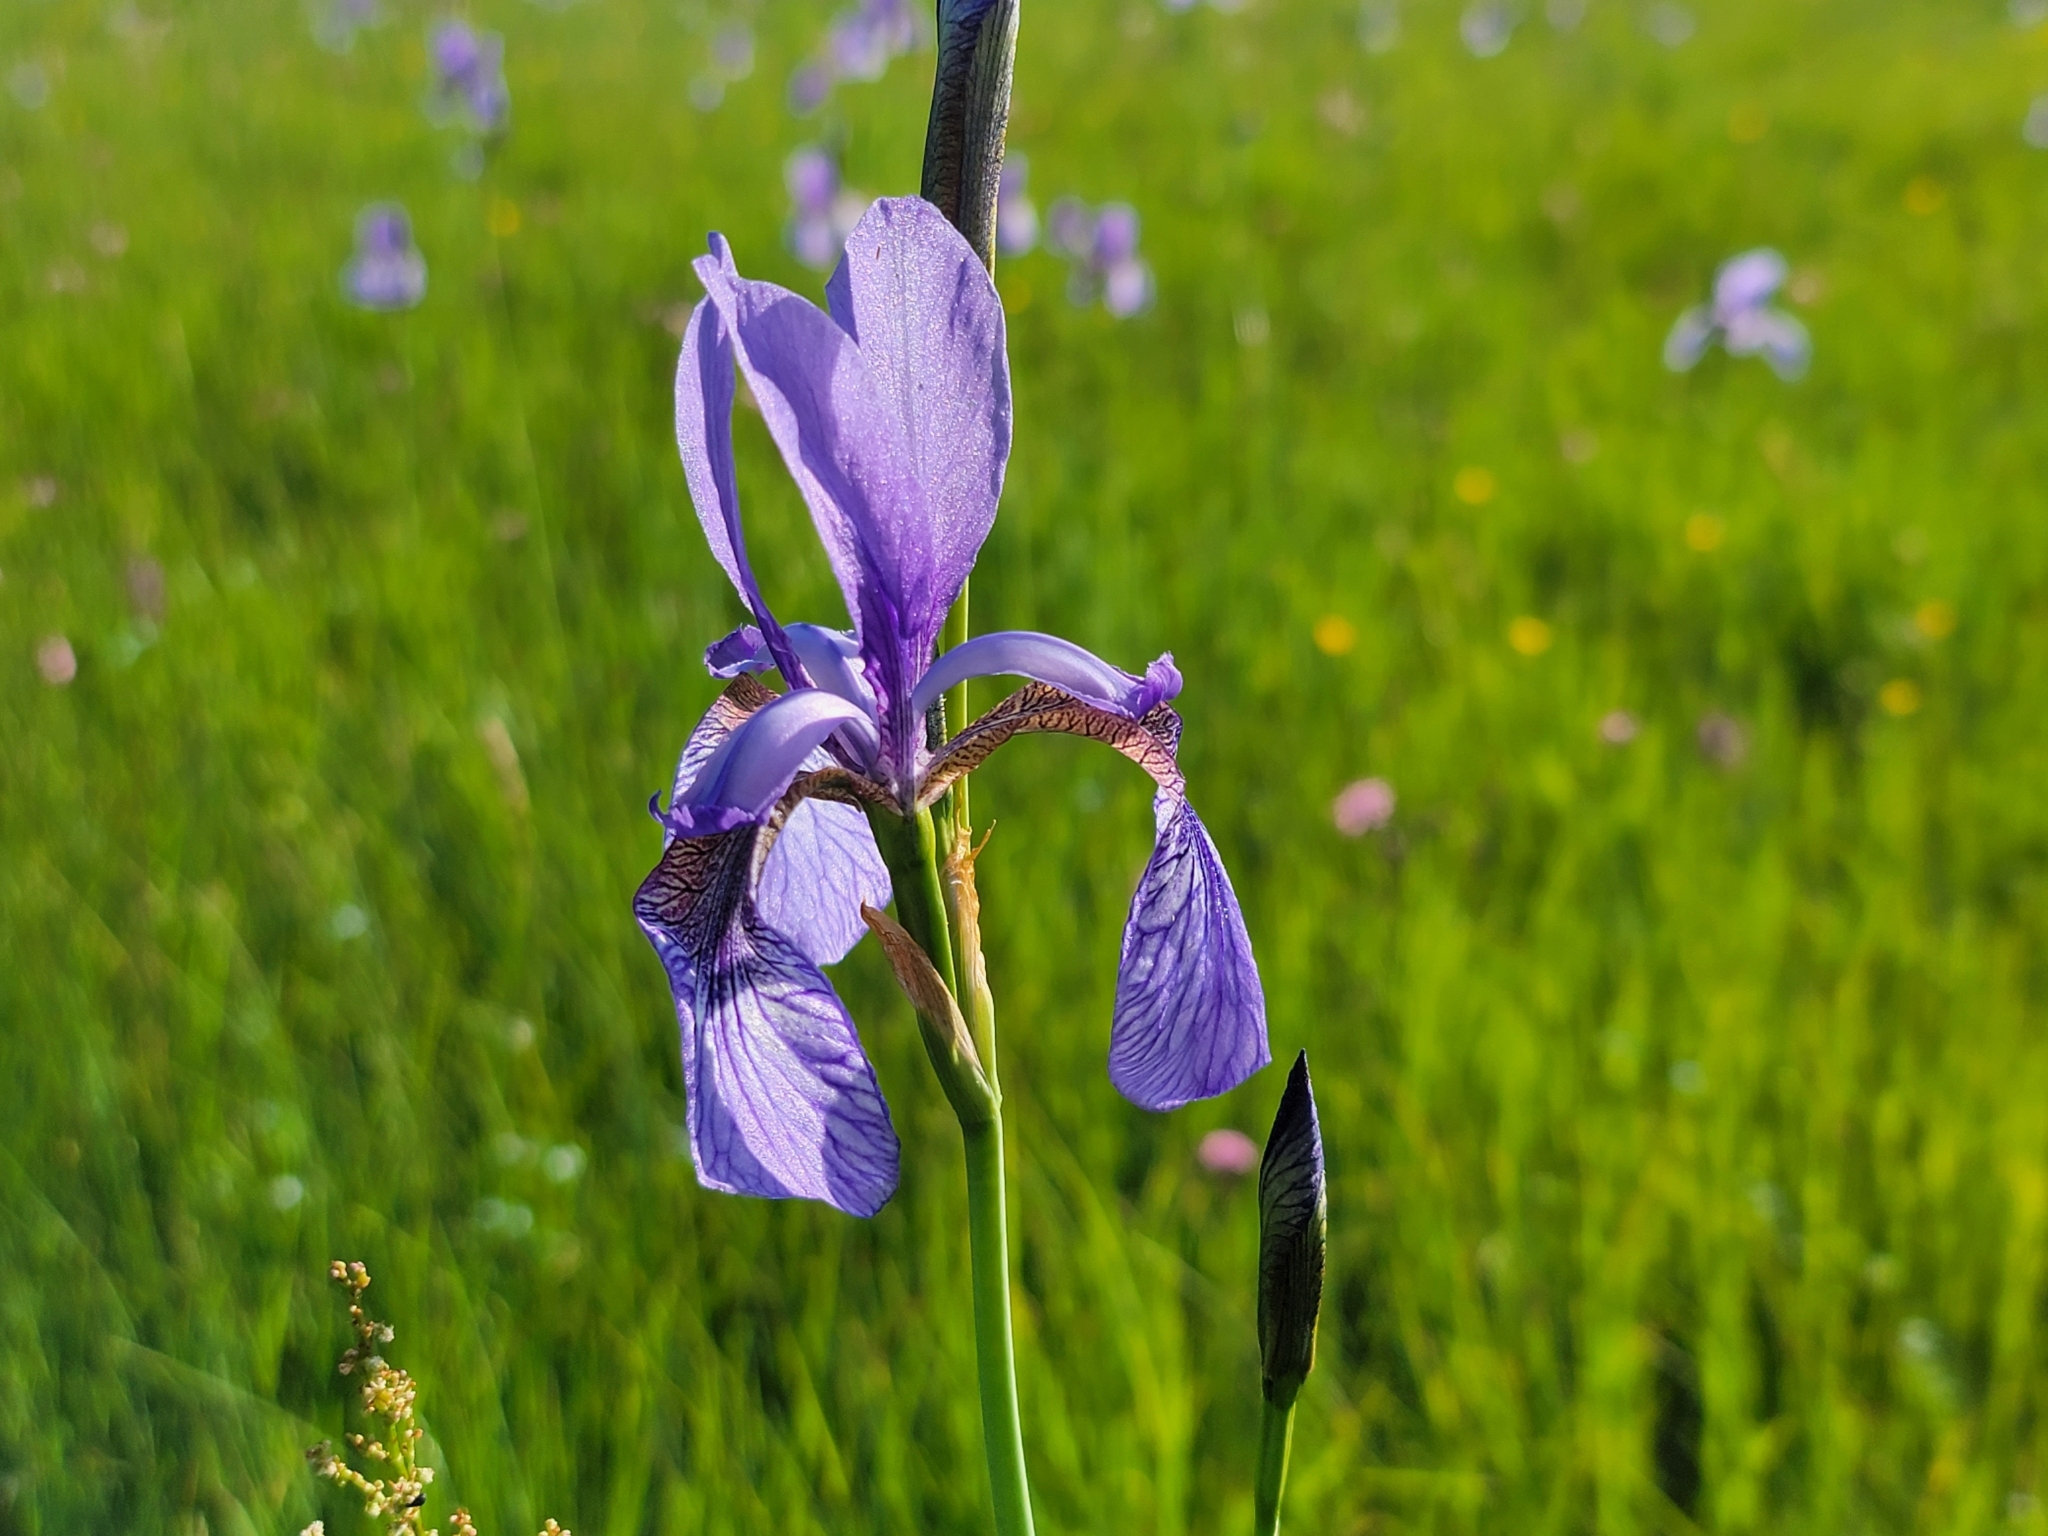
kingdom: Plantae
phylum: Tracheophyta
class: Liliopsida
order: Asparagales
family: Iridaceae
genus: Iris
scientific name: Iris sibirica
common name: Siberian iris
